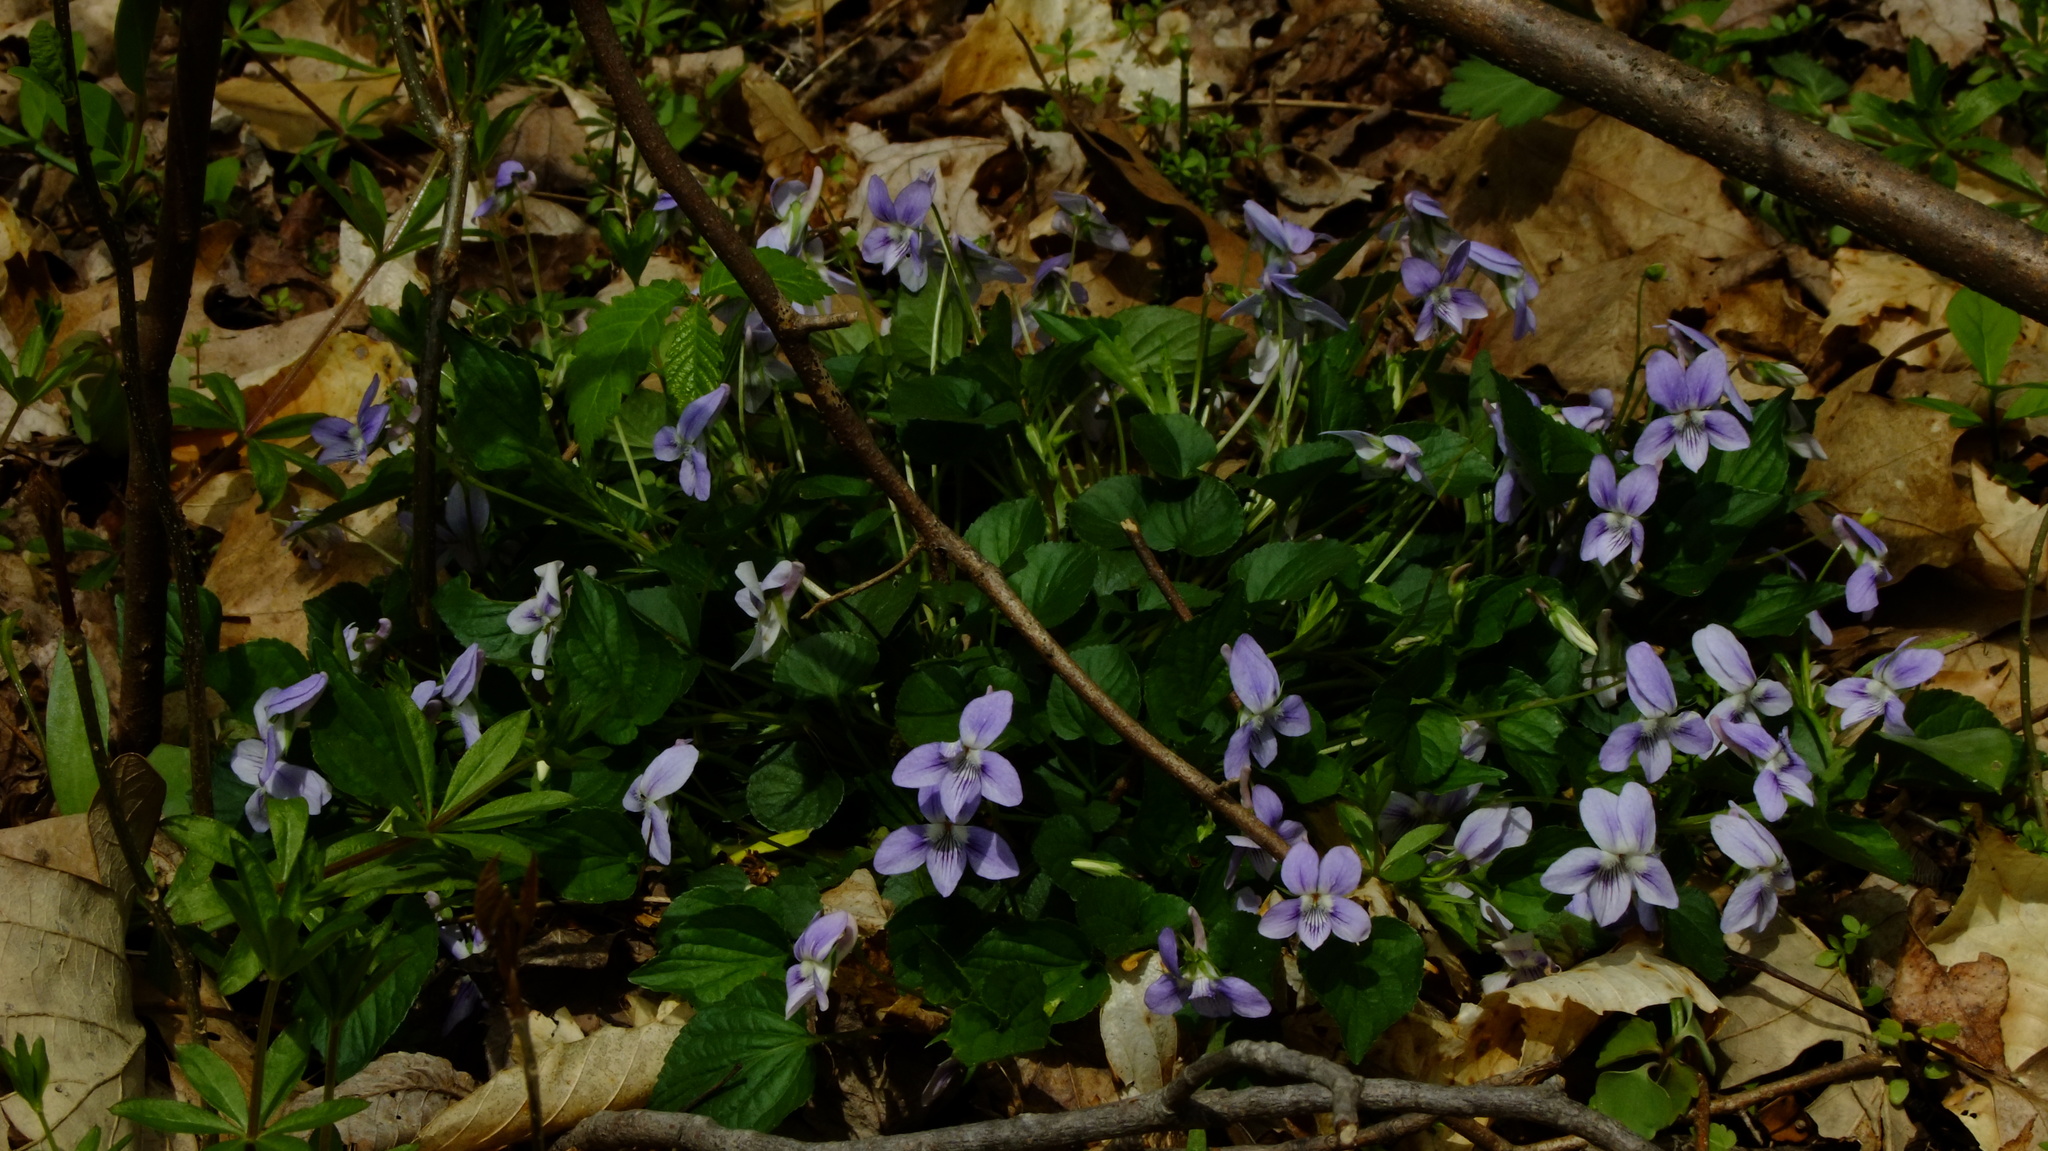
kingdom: Plantae
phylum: Tracheophyta
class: Magnoliopsida
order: Malpighiales
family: Violaceae
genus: Viola
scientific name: Viola rostrata
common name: Long-spur violet
